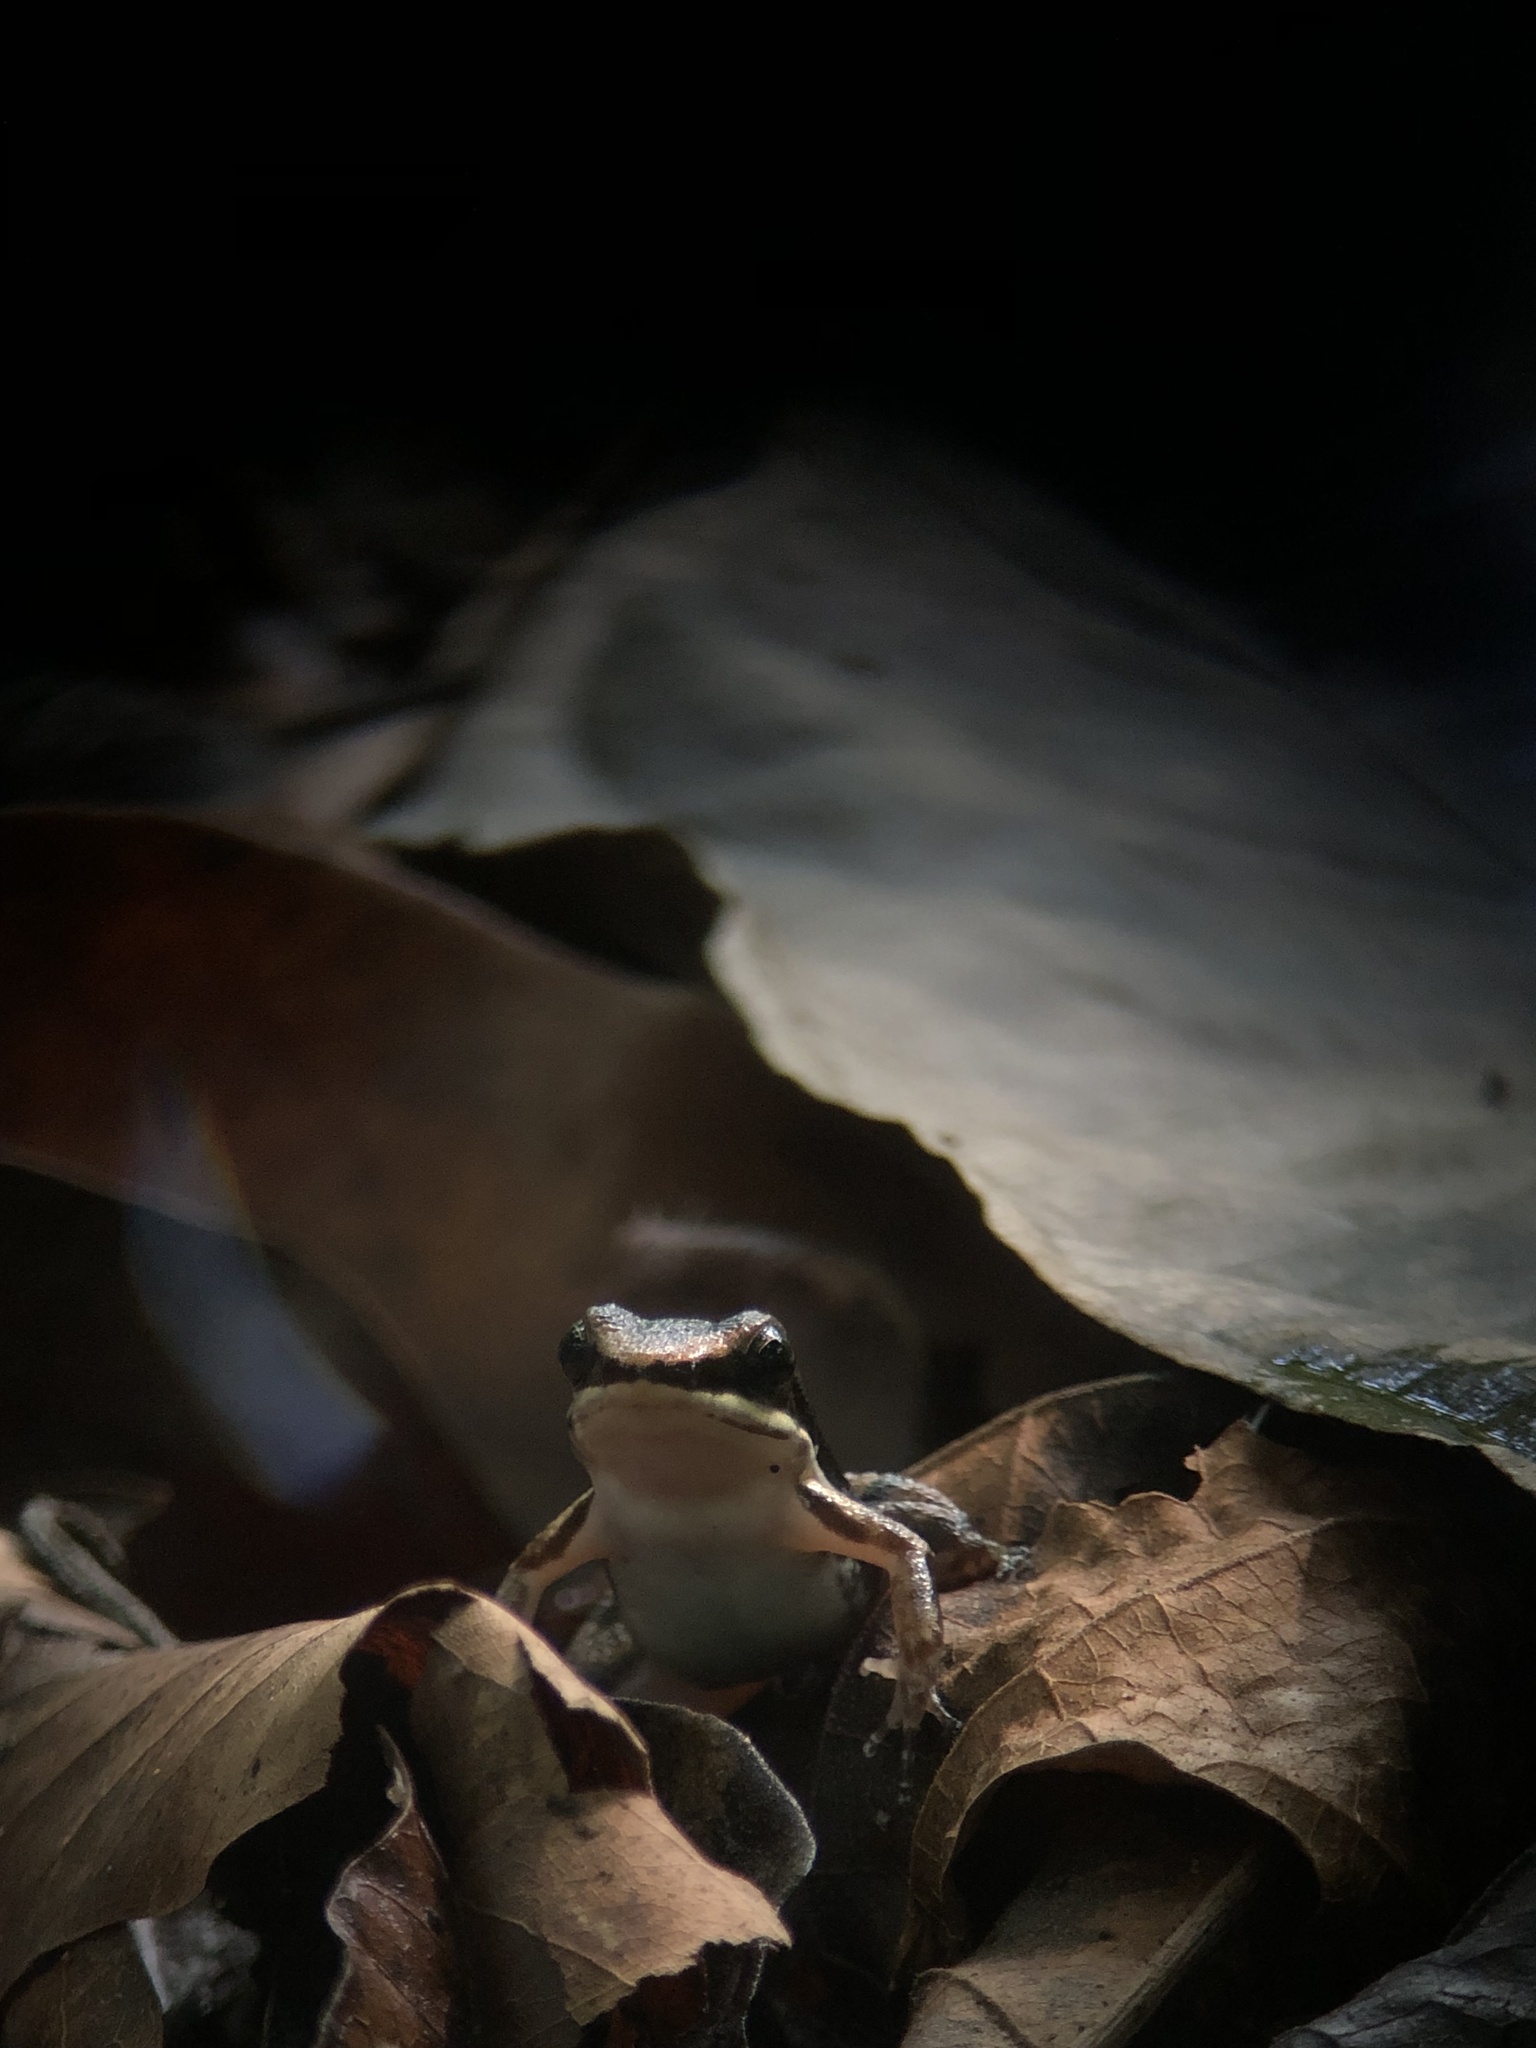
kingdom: Animalia
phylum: Chordata
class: Amphibia
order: Anura
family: Aromobatidae
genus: Allobates
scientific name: Allobates talamancae
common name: Talamanca rocket frog
